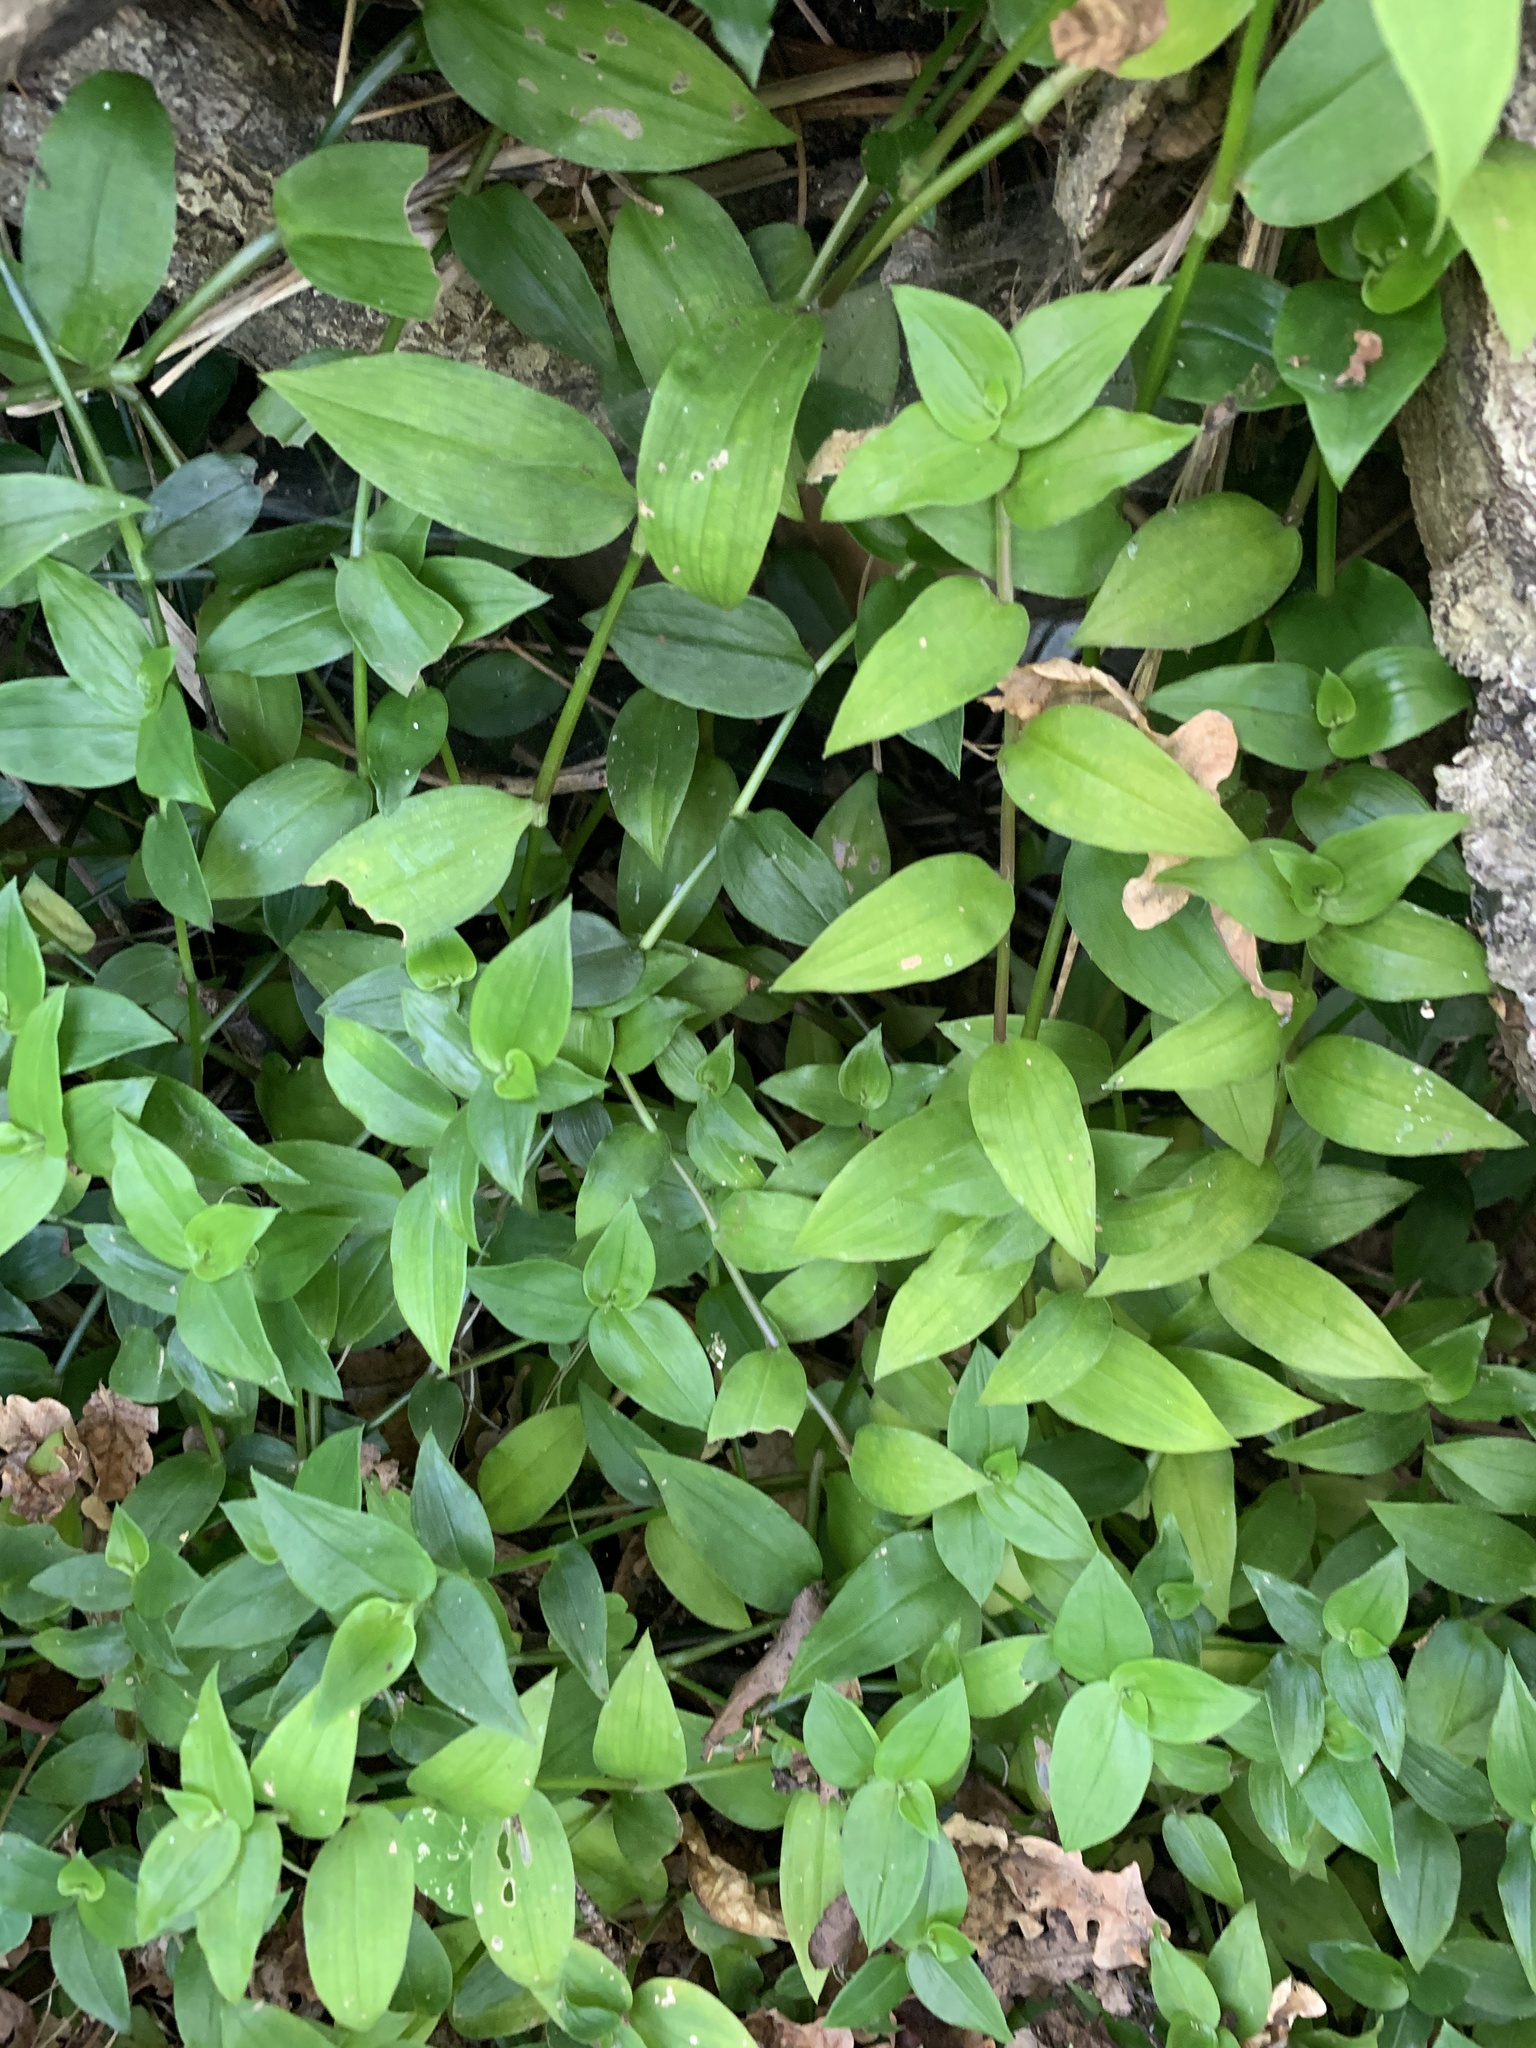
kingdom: Plantae
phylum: Tracheophyta
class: Liliopsida
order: Commelinales
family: Commelinaceae
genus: Tradescantia
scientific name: Tradescantia fluminensis
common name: Wandering-jew
